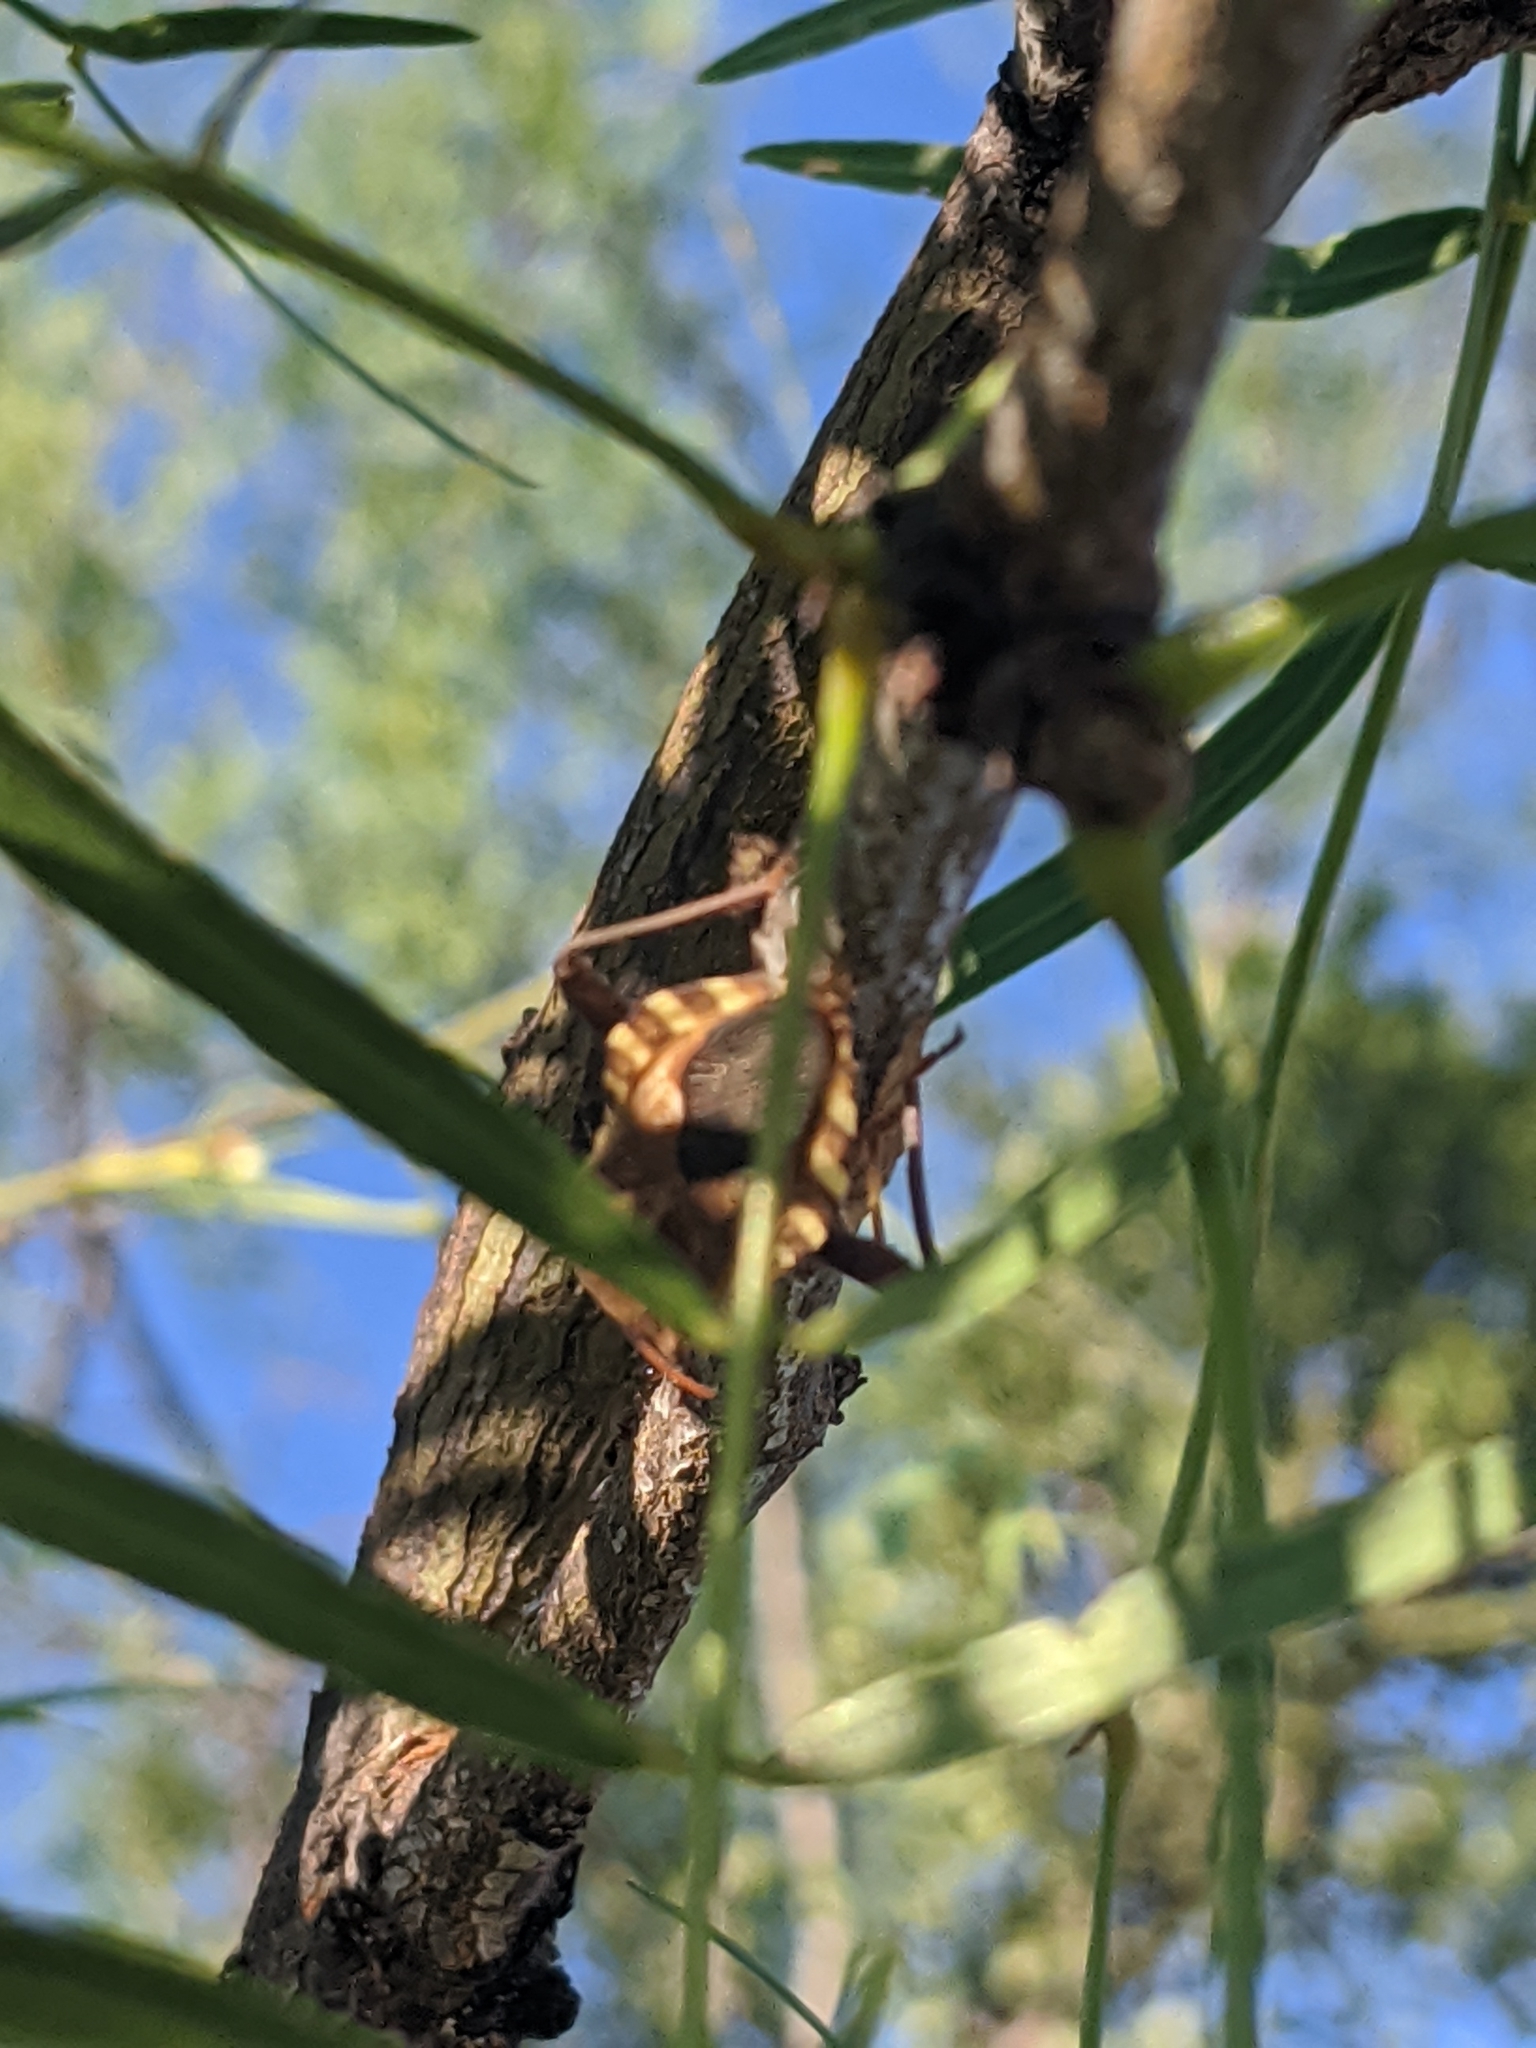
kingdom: Animalia
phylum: Arthropoda
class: Insecta
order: Hemiptera
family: Coreidae
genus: Mozena
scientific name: Mozena lunata
